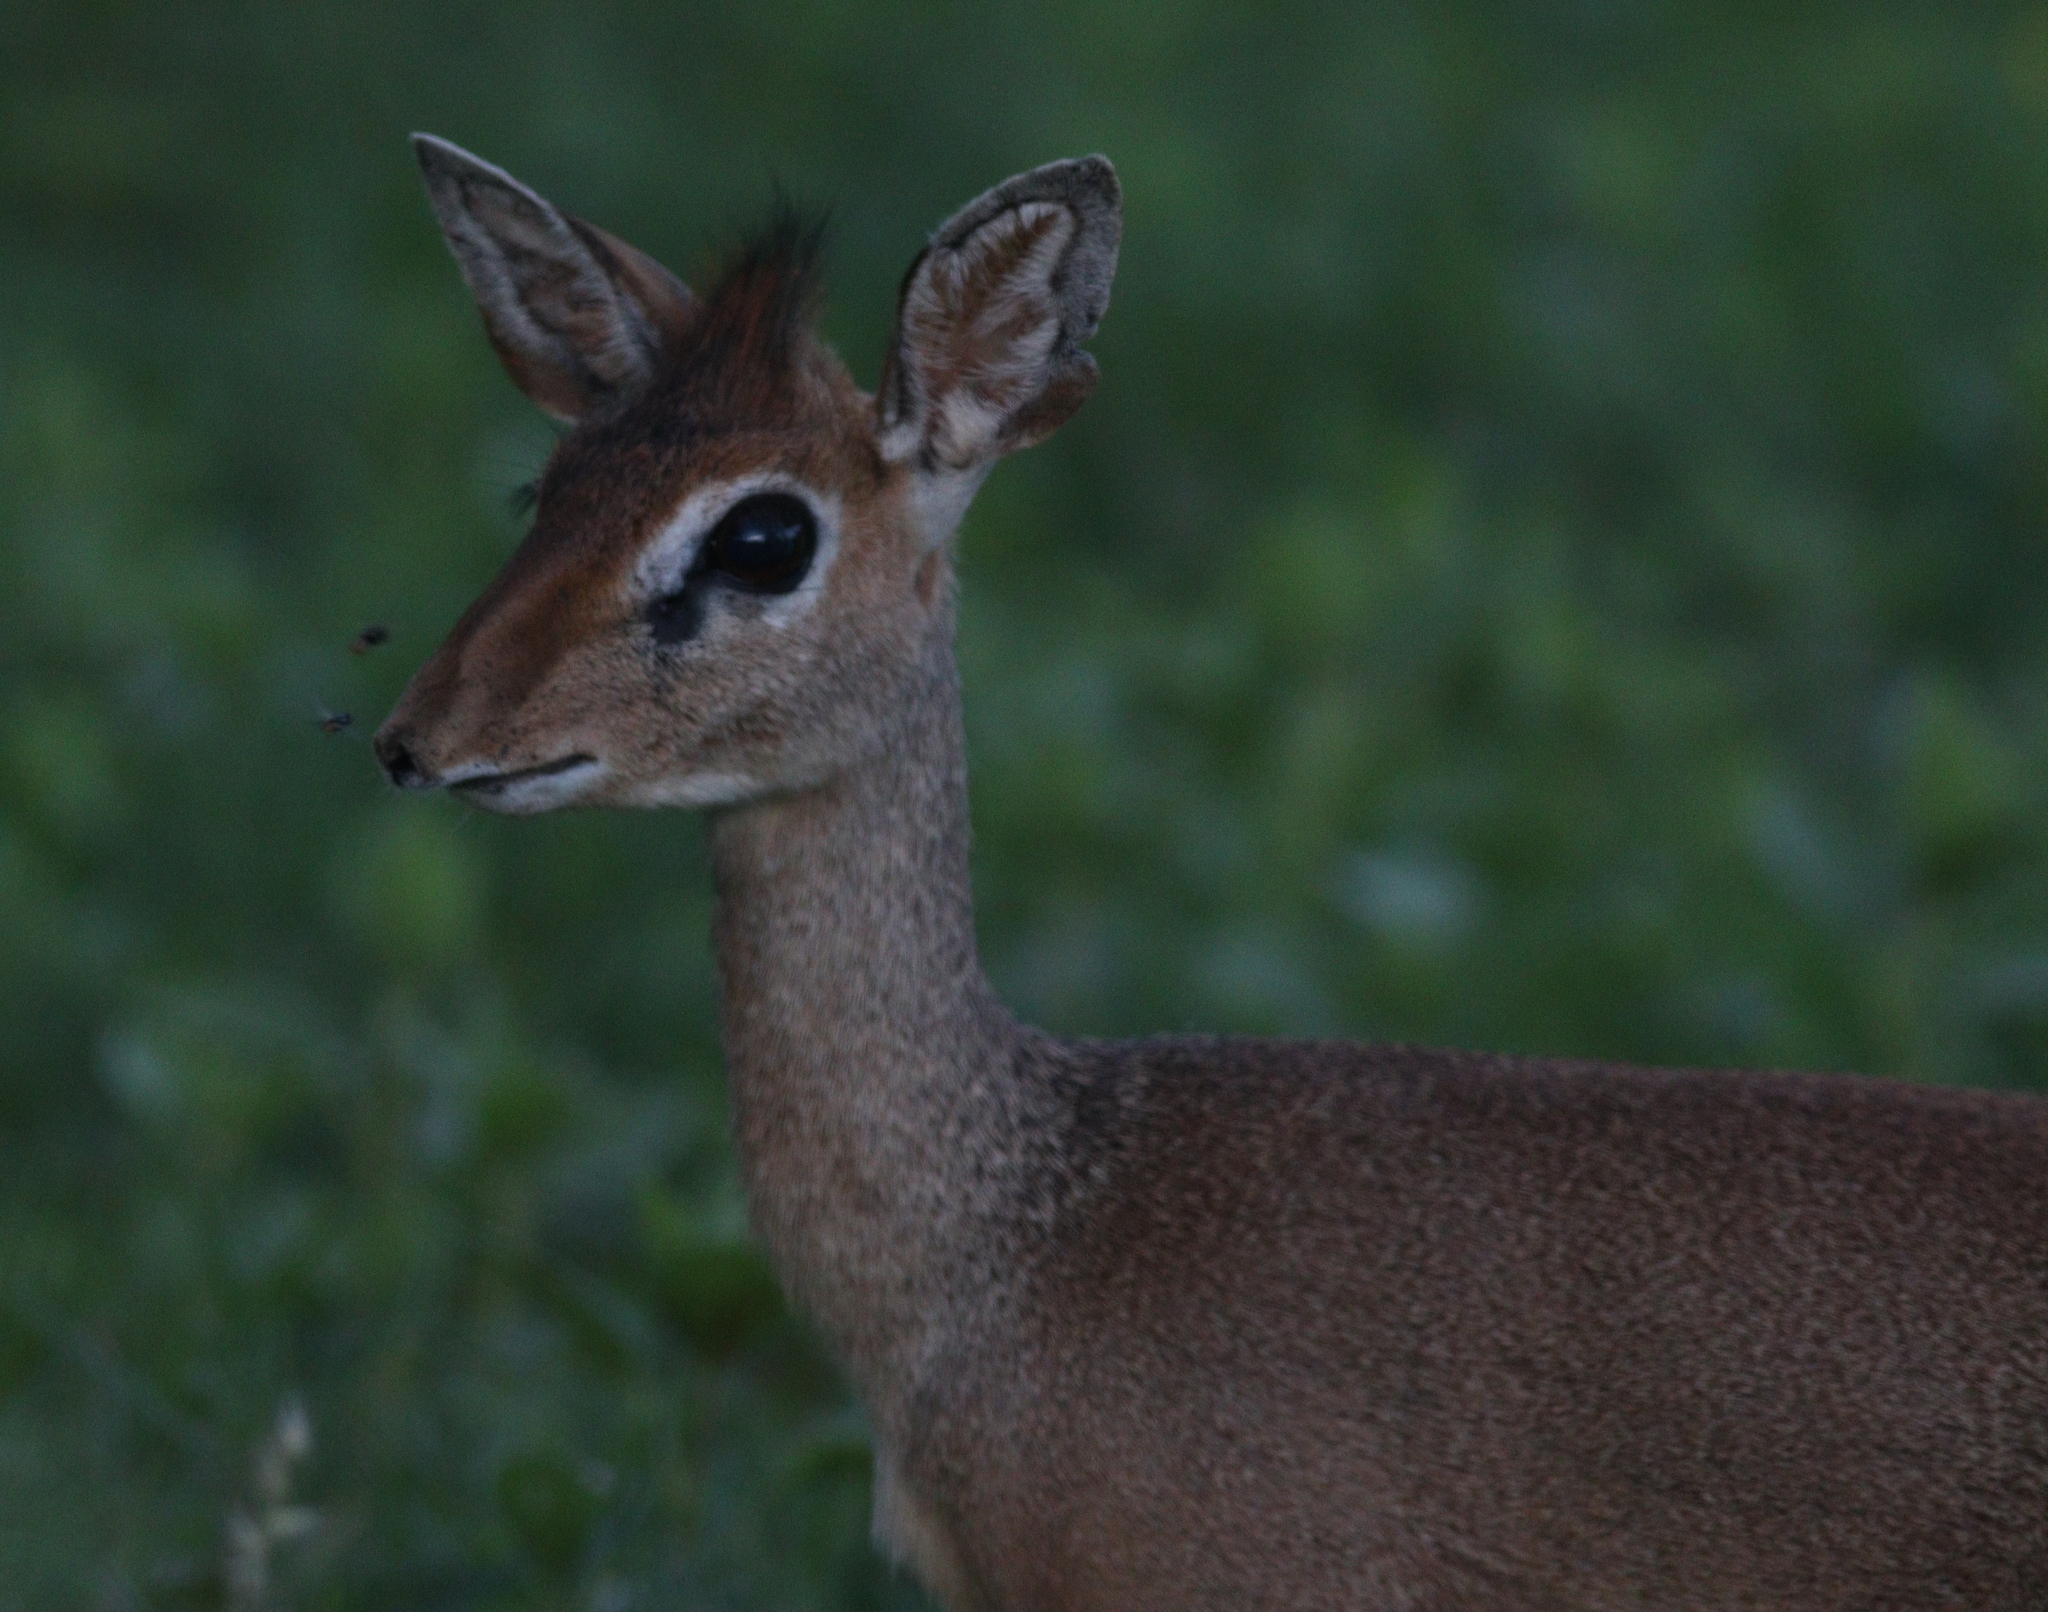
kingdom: Animalia
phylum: Chordata
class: Mammalia
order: Artiodactyla
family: Bovidae
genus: Madoqua
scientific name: Madoqua kirkii
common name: Kirk's dik-dik
